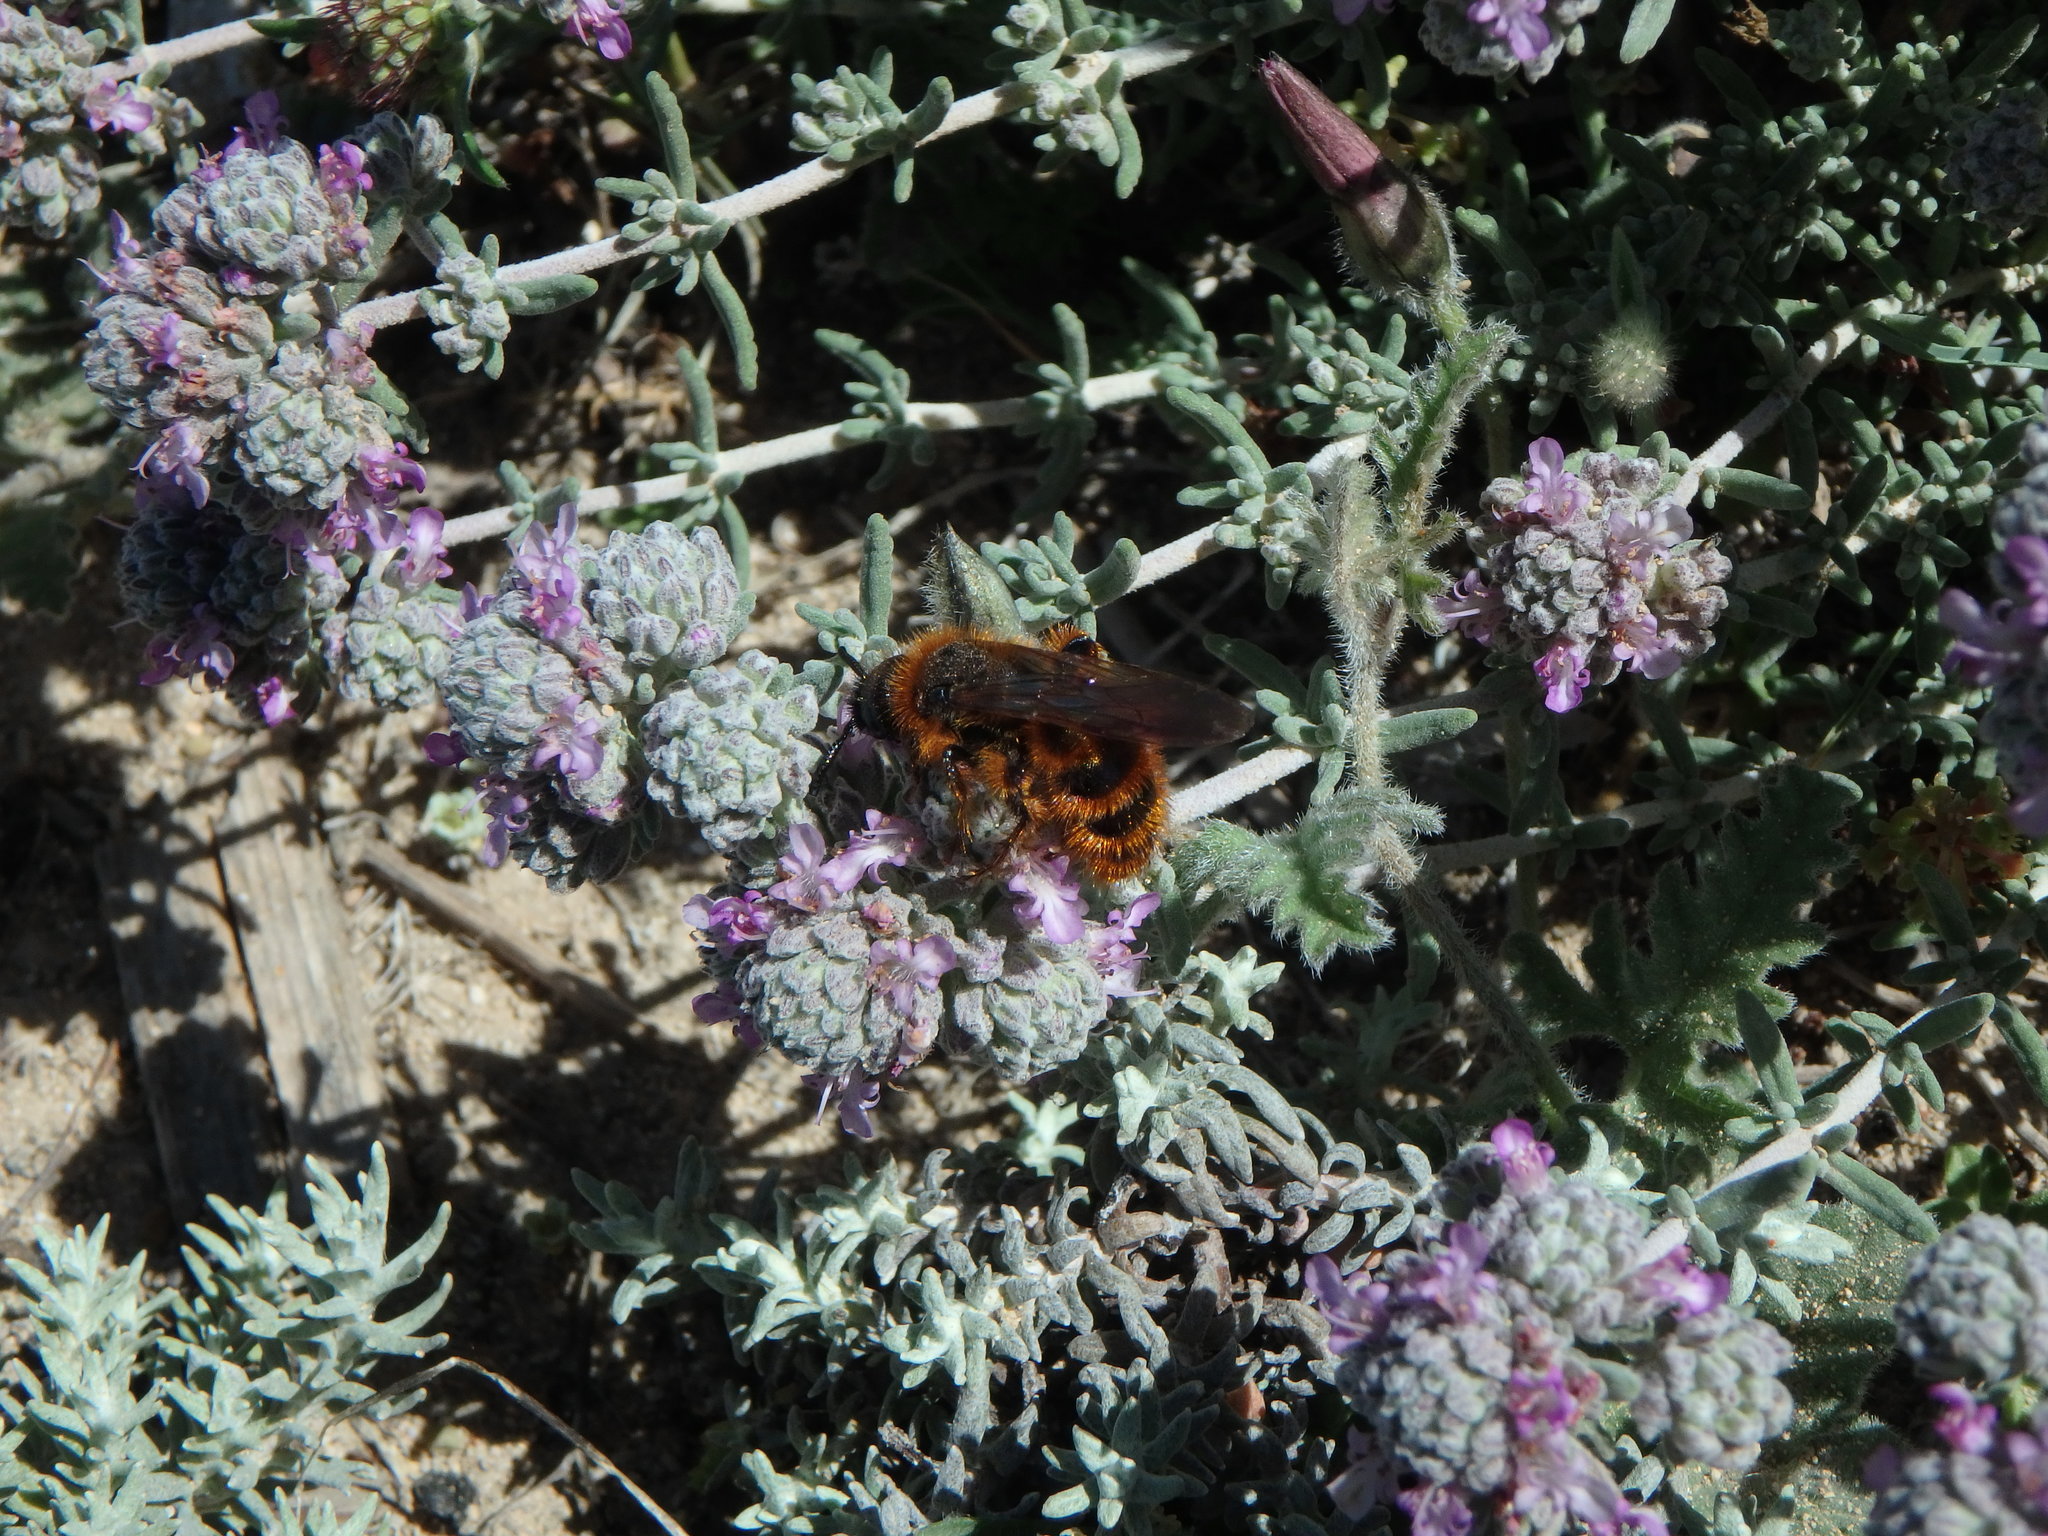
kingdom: Animalia
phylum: Arthropoda
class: Insecta
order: Hymenoptera
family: Scoliidae
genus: Dasyscolia
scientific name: Dasyscolia ciliata
